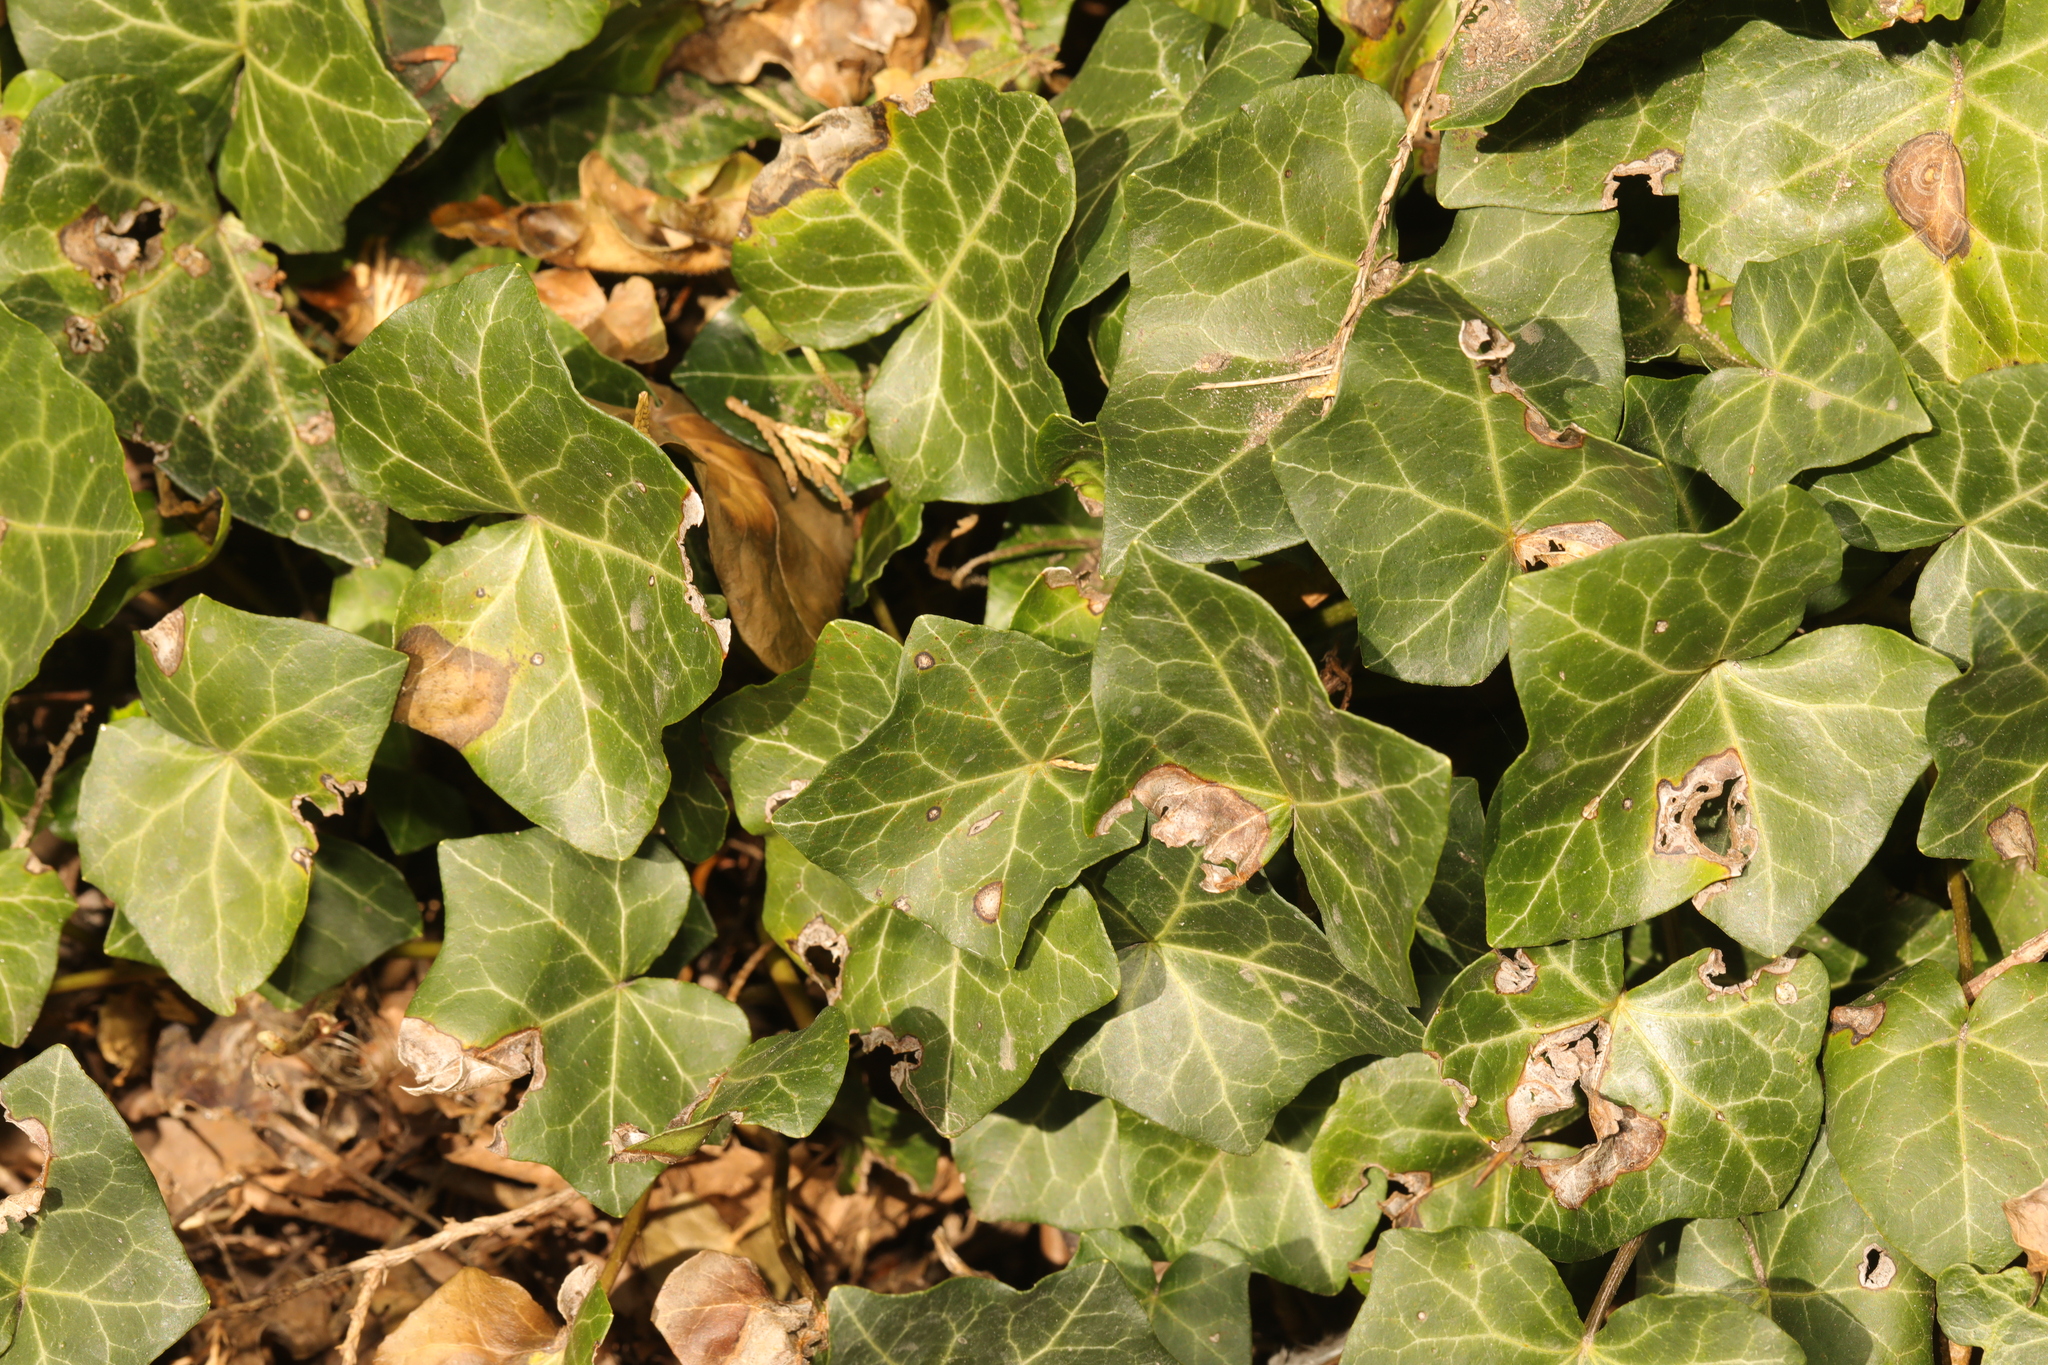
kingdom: Plantae
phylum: Tracheophyta
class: Magnoliopsida
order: Apiales
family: Araliaceae
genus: Hedera
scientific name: Hedera helix
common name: Ivy
